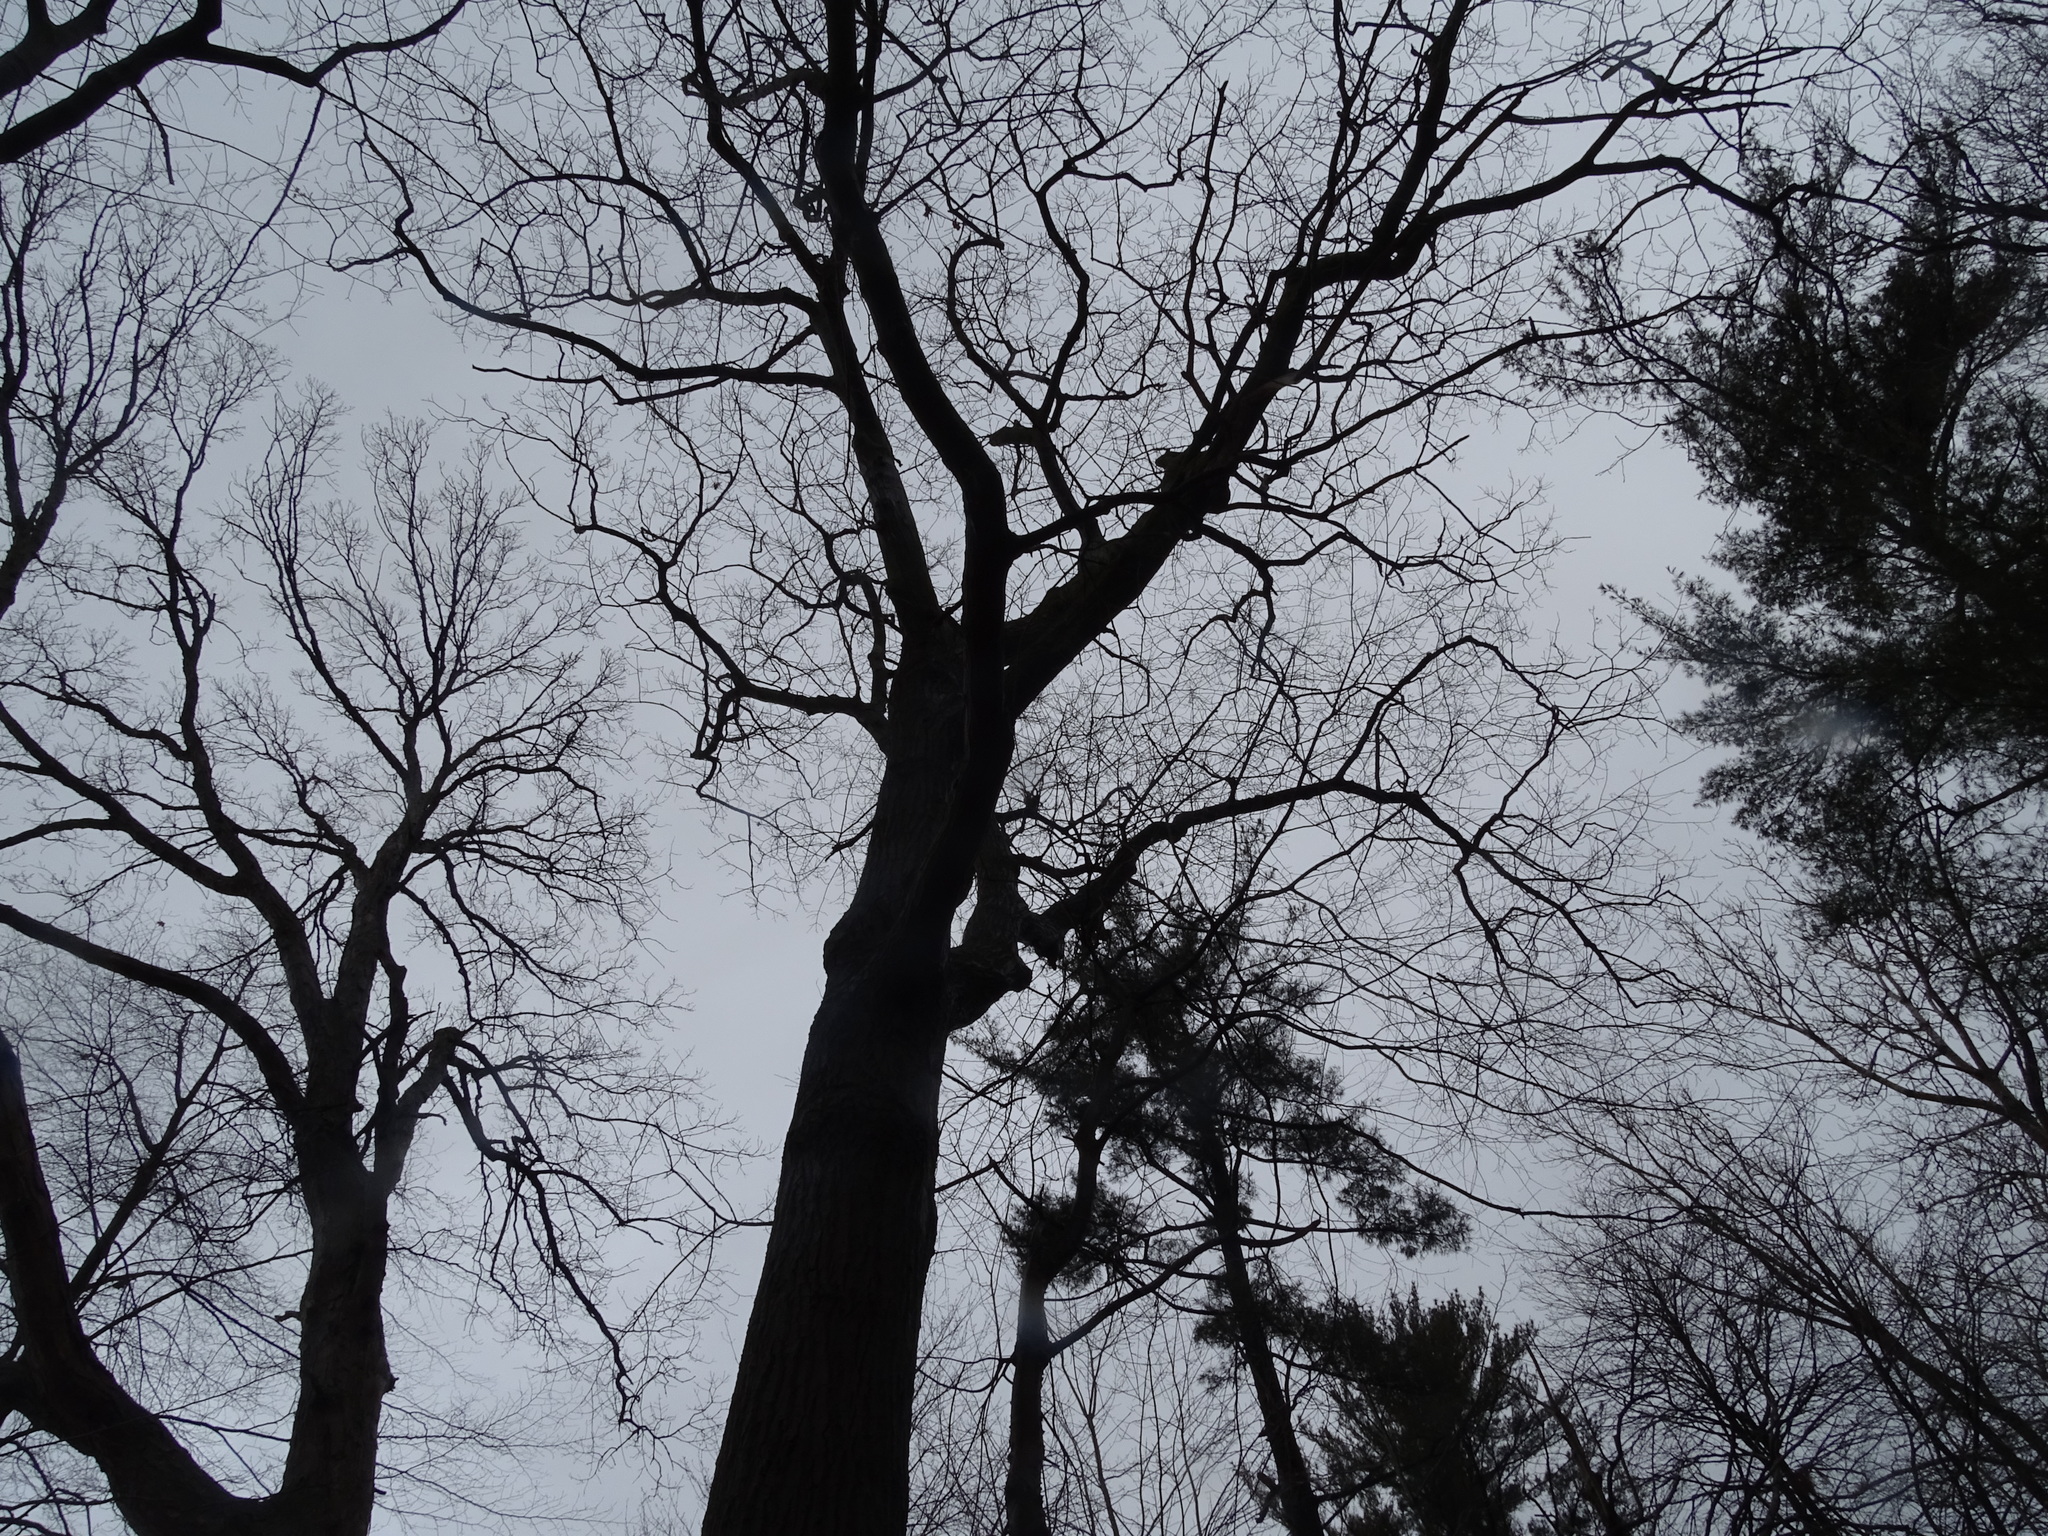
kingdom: Plantae
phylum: Tracheophyta
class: Magnoliopsida
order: Fagales
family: Fagaceae
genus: Quercus
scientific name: Quercus rubra
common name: Red oak
